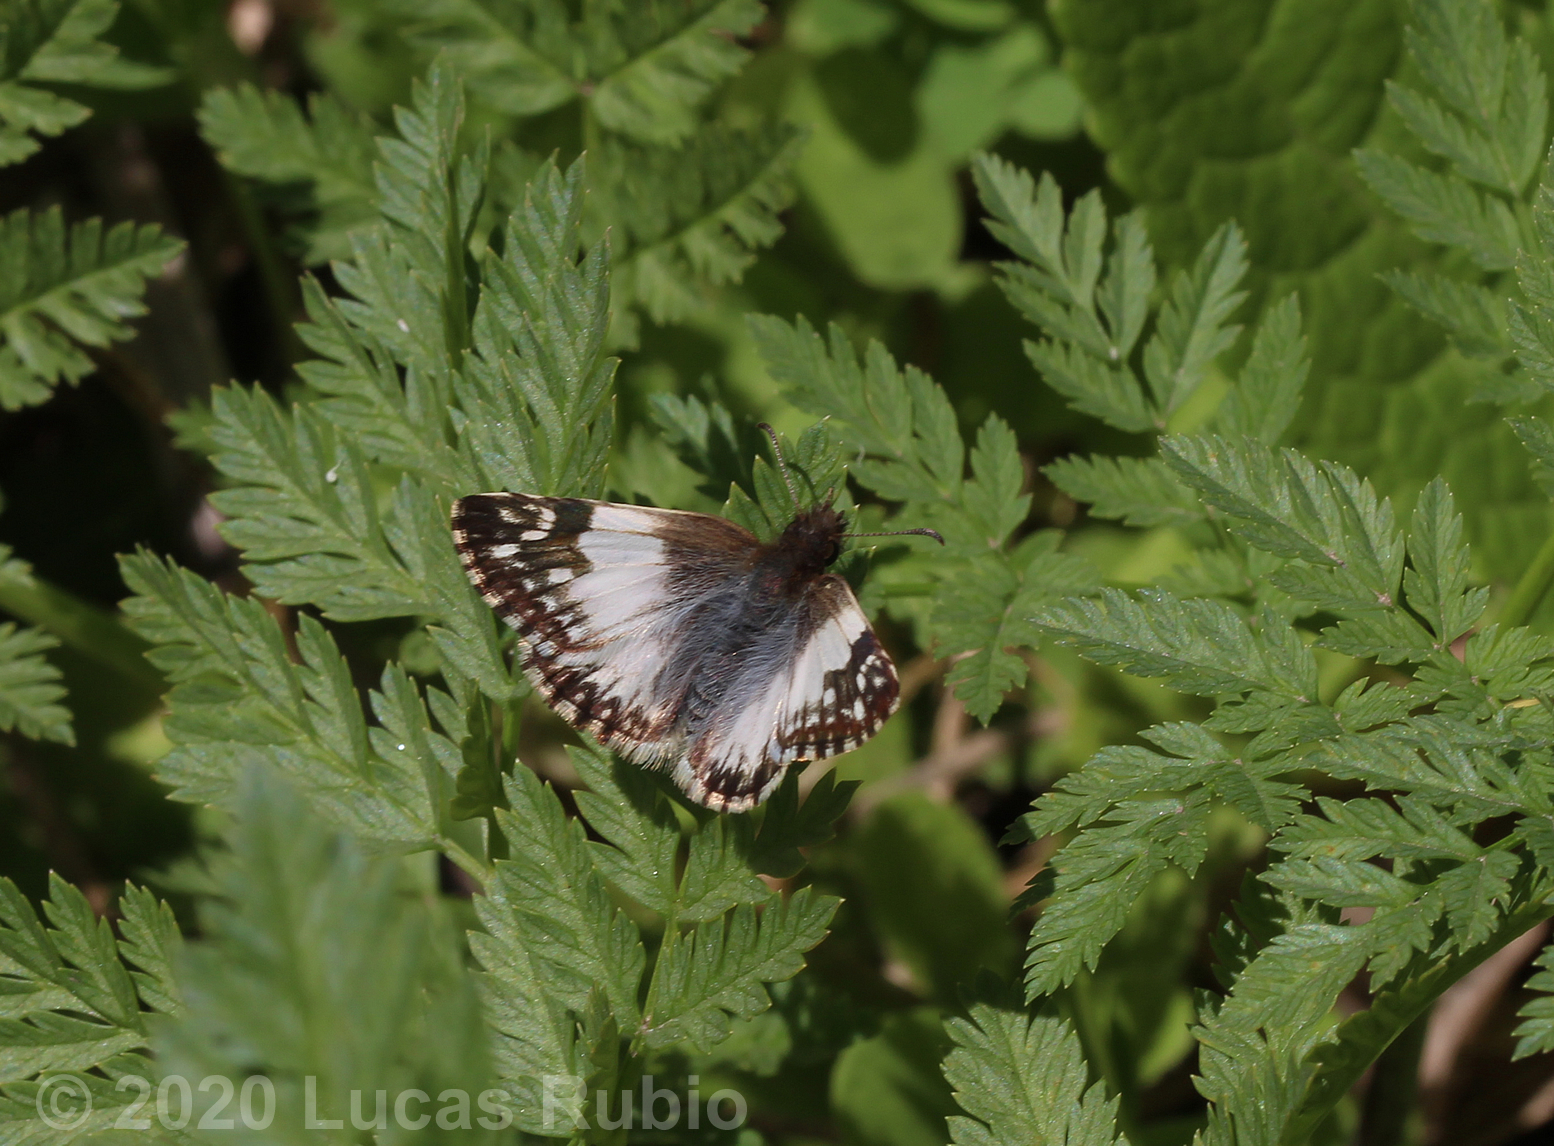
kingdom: Animalia
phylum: Arthropoda
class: Insecta
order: Lepidoptera
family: Hesperiidae
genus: Heliopetes
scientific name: Heliopetes omrina
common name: Stained white-skipper
